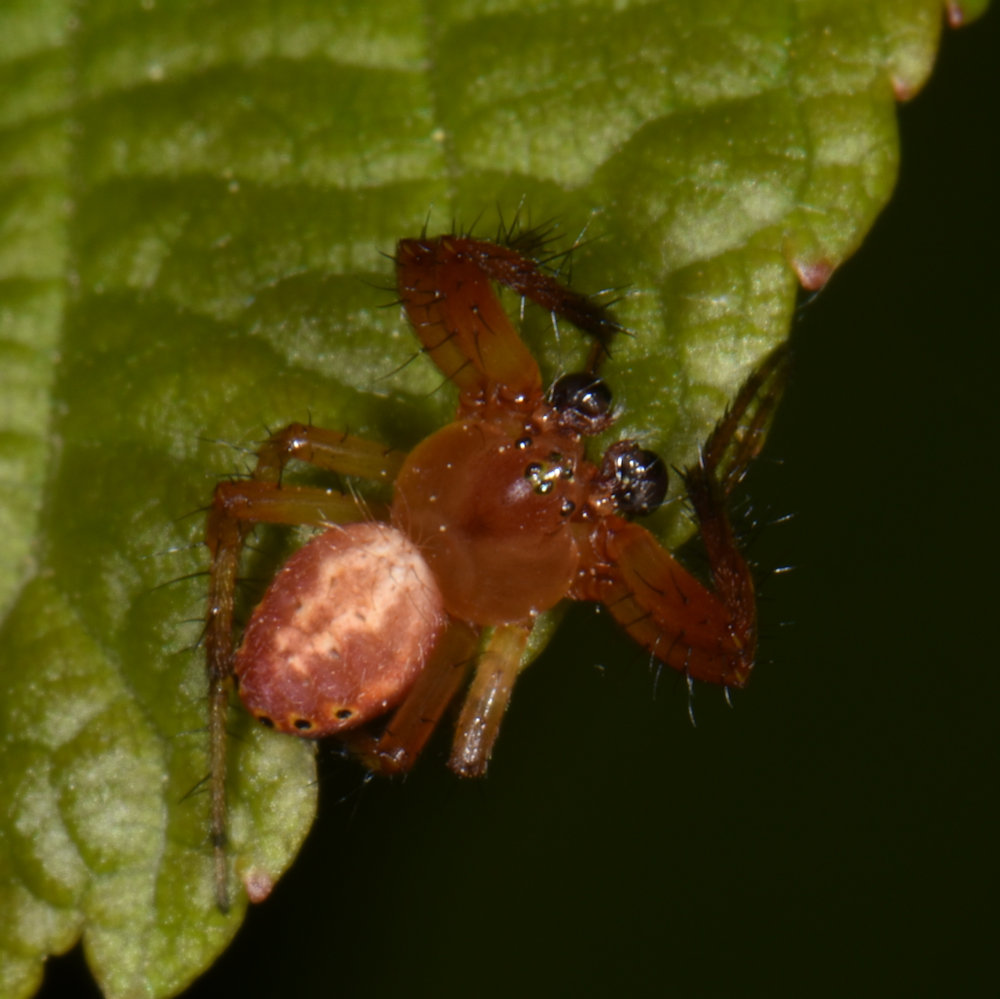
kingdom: Animalia
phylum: Arthropoda
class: Arachnida
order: Araneae
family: Araneidae
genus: Araniella
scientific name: Araniella displicata
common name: Sixspotted orb weaver
